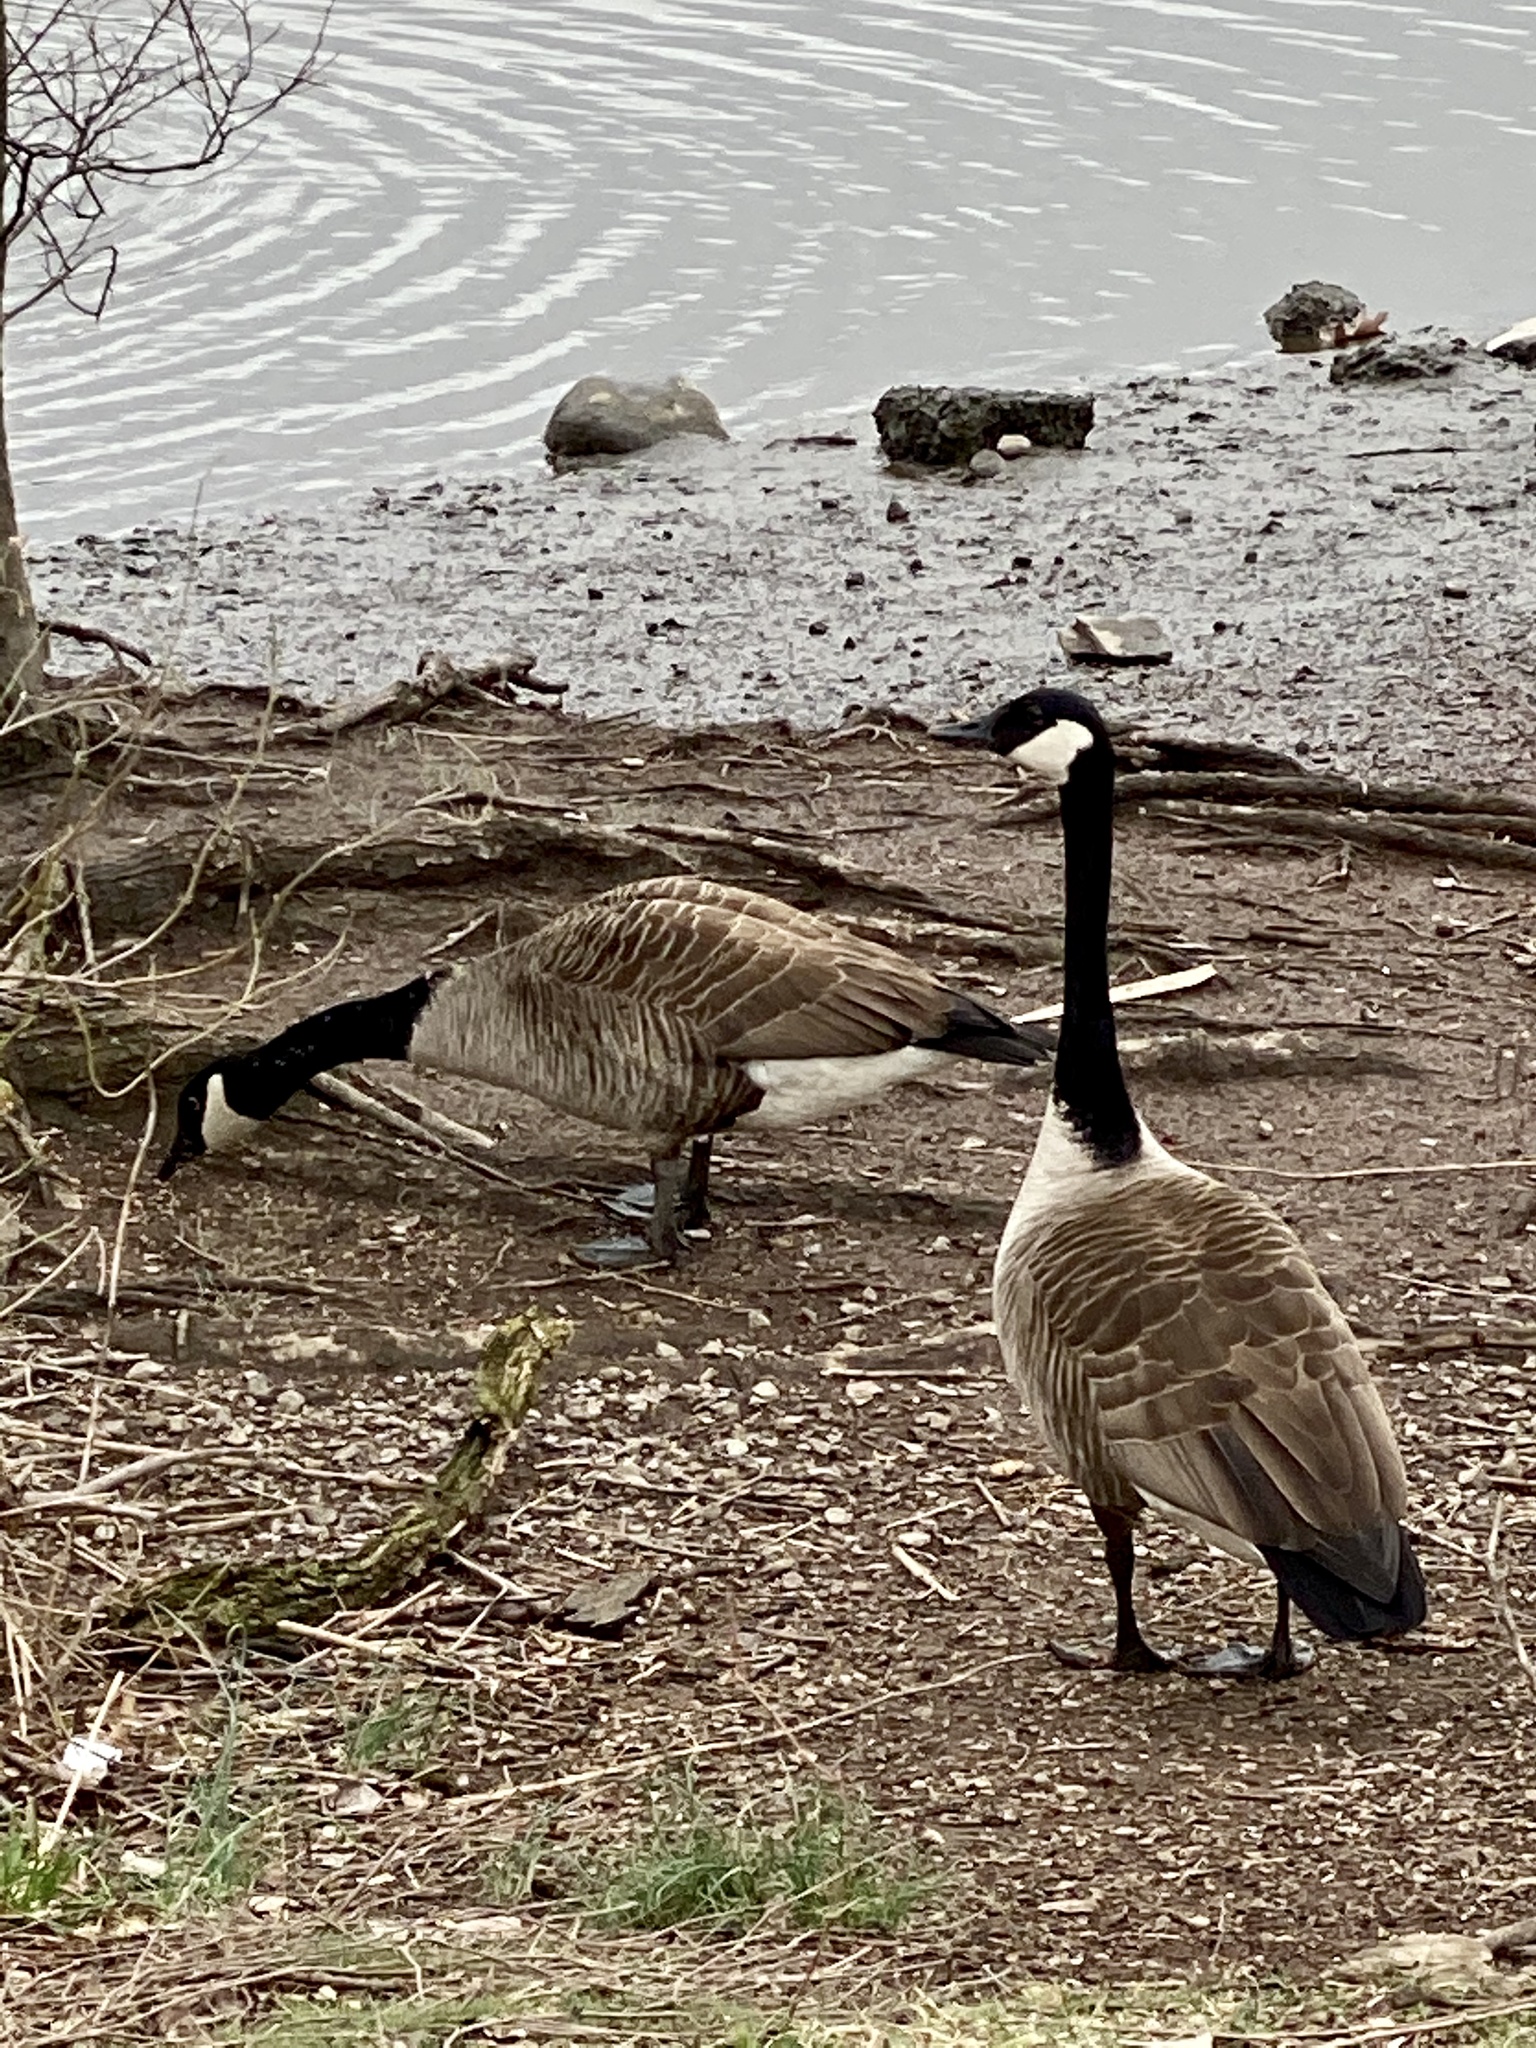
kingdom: Animalia
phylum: Chordata
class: Aves
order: Anseriformes
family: Anatidae
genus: Branta
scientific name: Branta canadensis
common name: Canada goose
